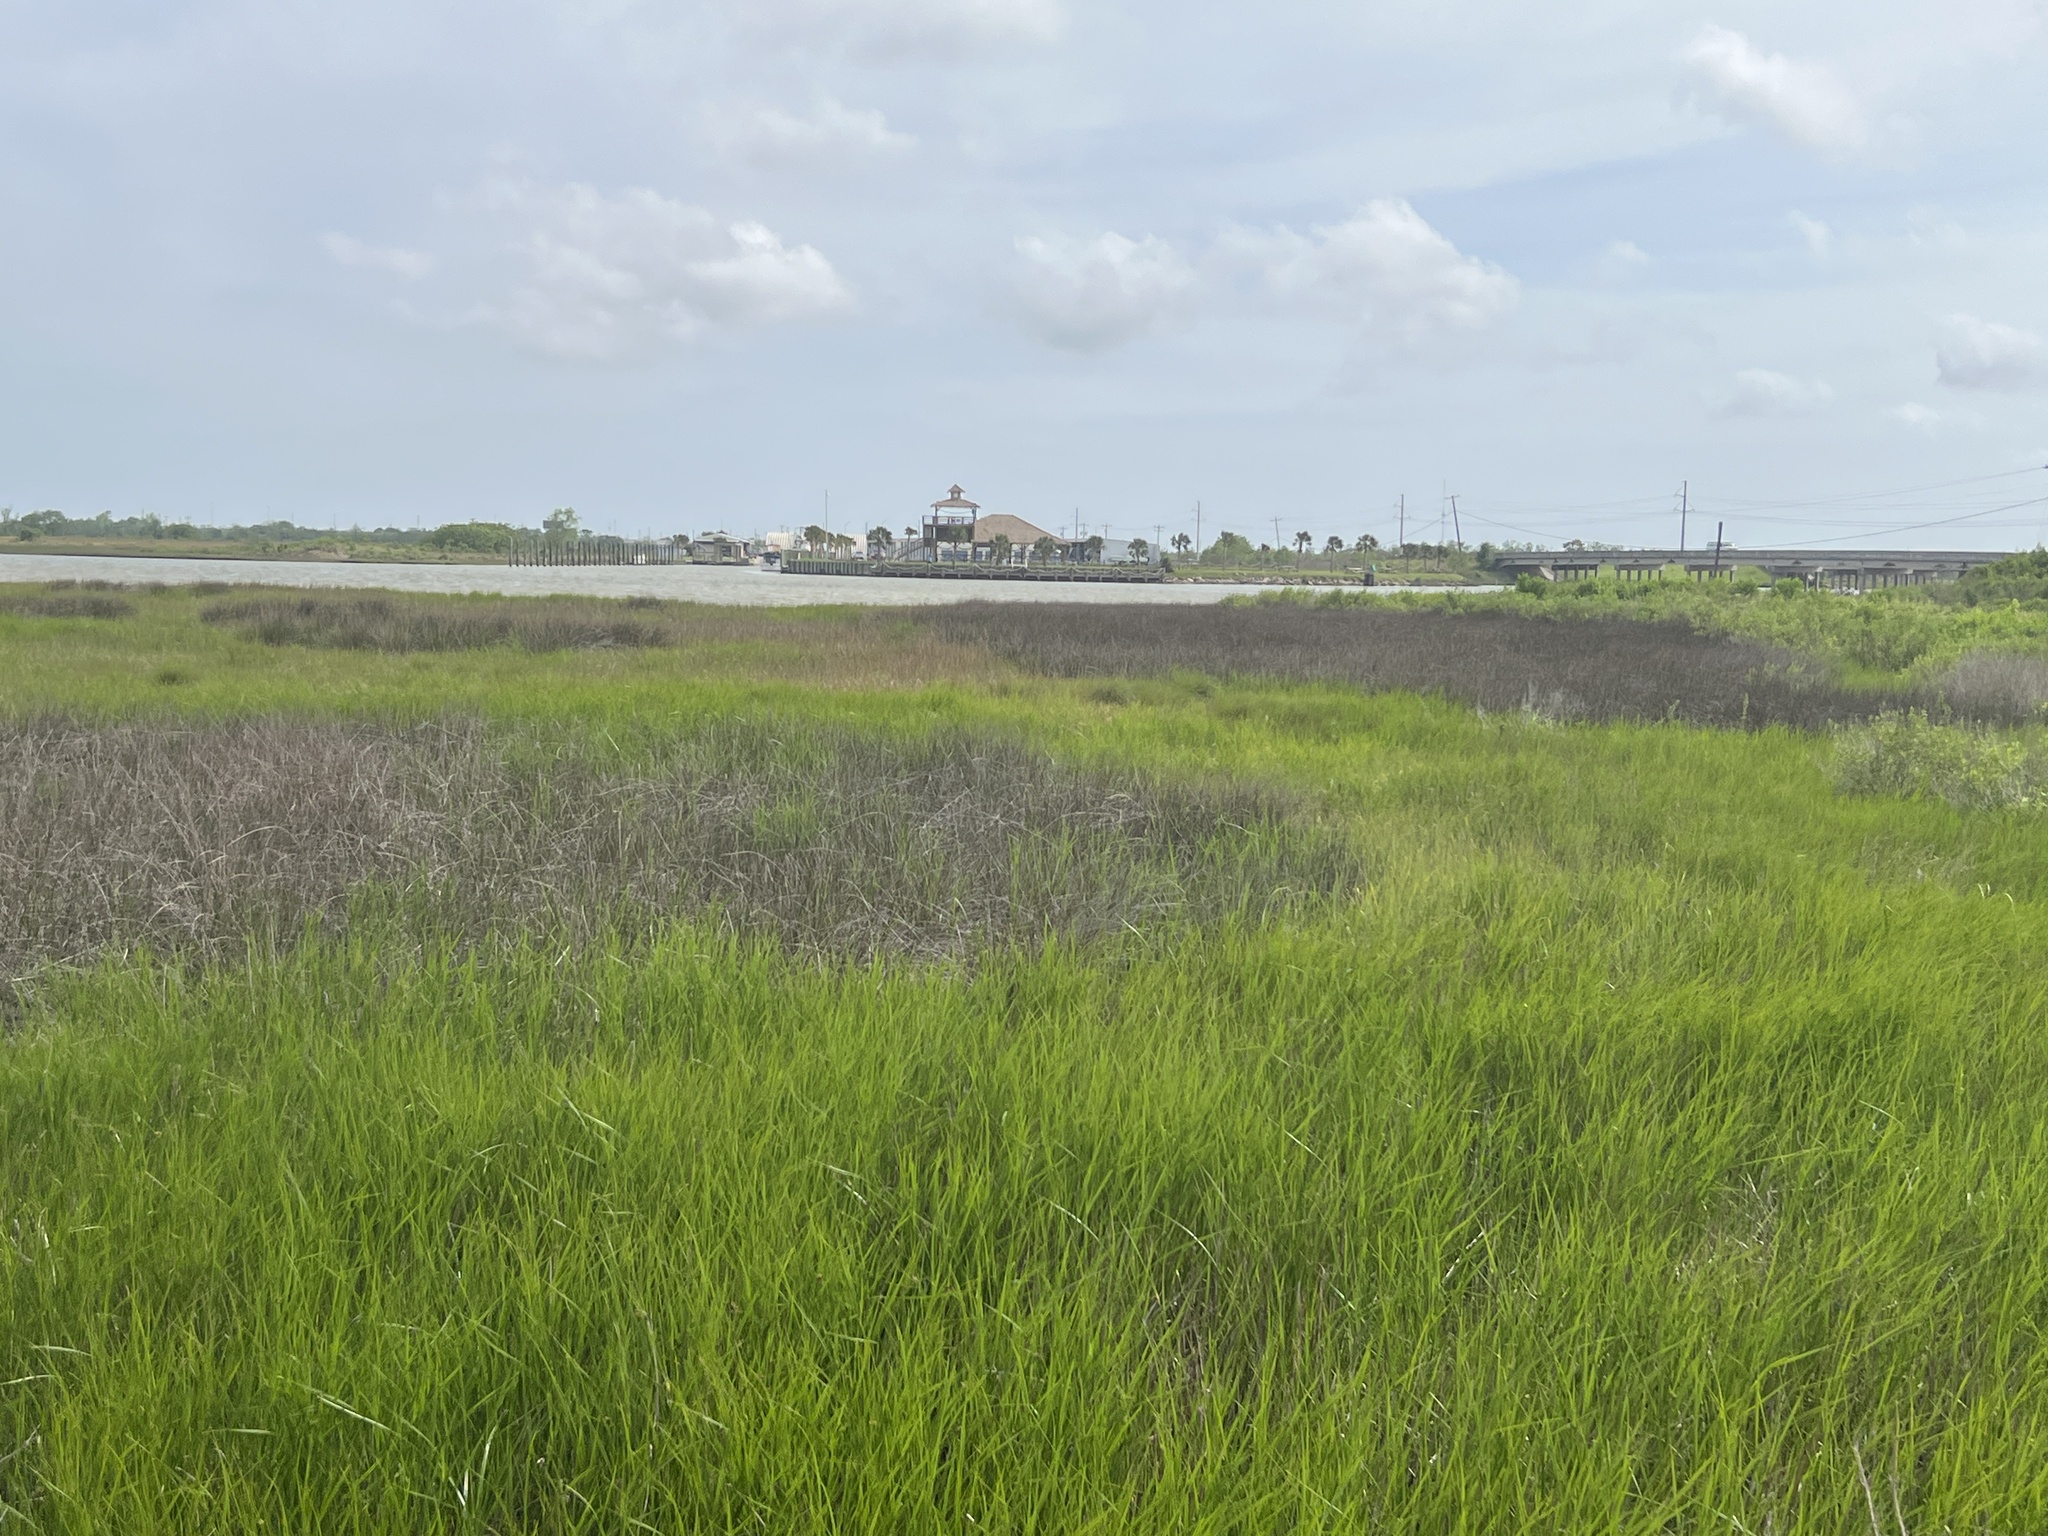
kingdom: Plantae
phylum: Tracheophyta
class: Liliopsida
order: Poales
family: Juncaceae
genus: Juncus
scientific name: Juncus roemerianus
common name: Roemer's rush
